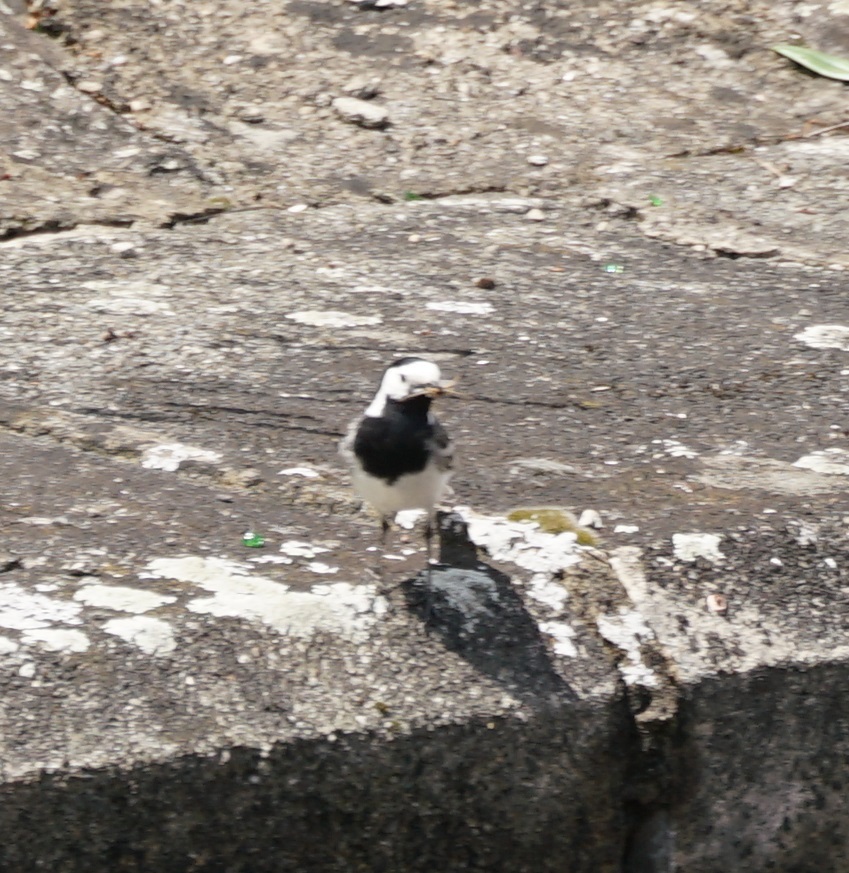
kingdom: Animalia
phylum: Chordata
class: Aves
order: Passeriformes
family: Motacillidae
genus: Motacilla
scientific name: Motacilla alba
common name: White wagtail
